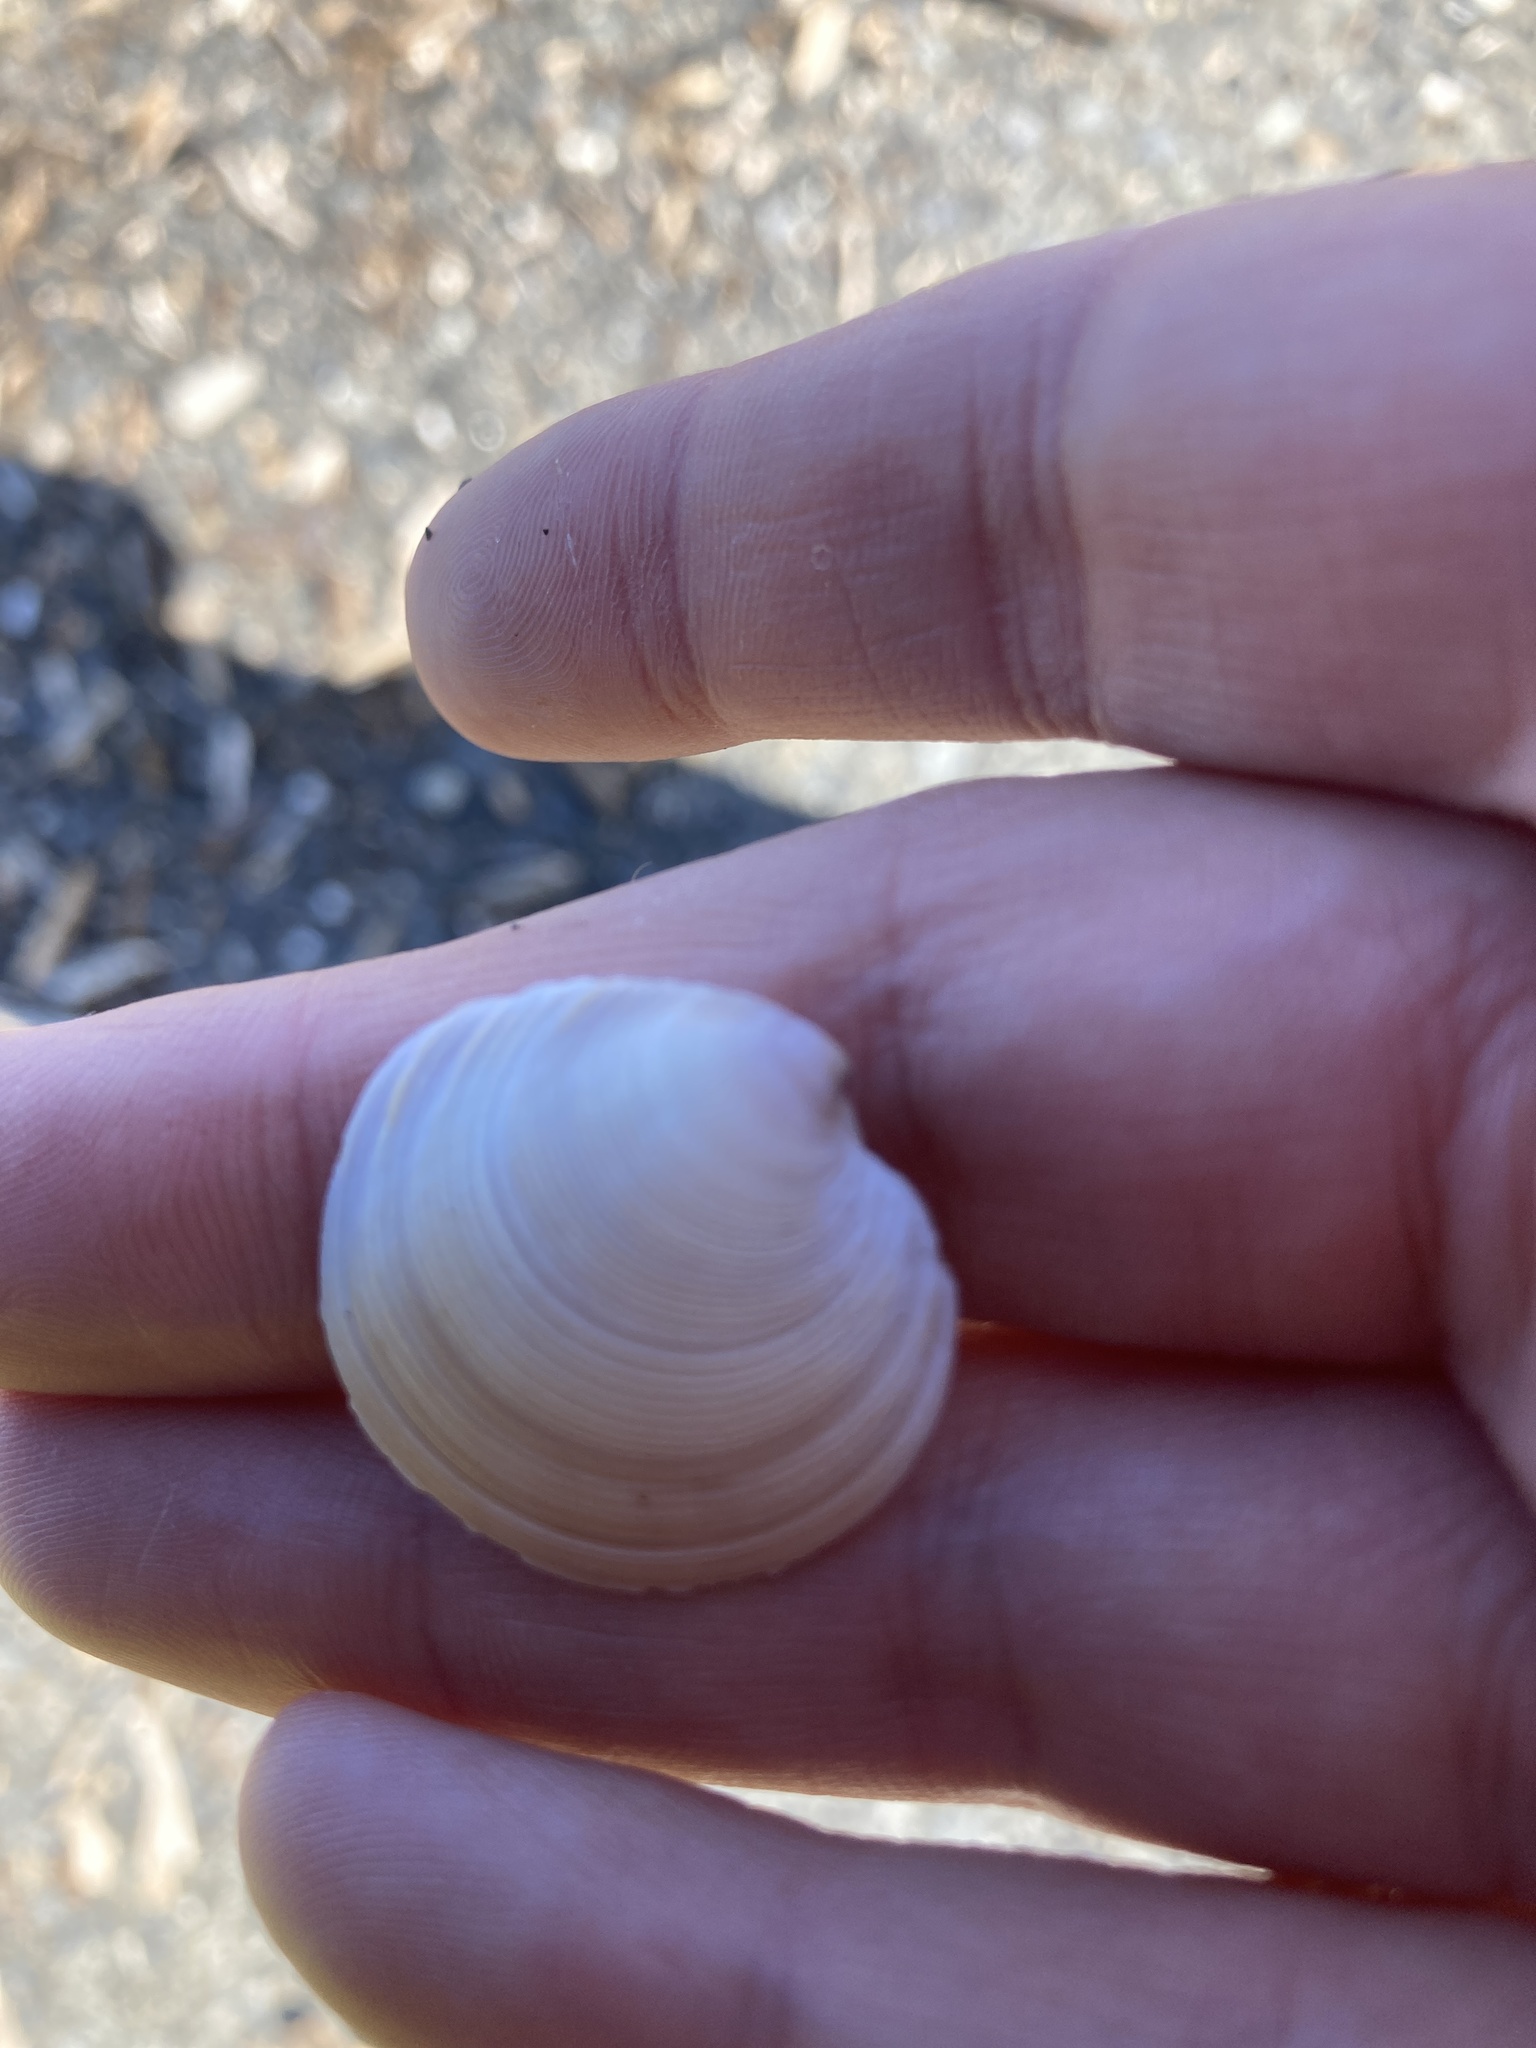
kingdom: Animalia
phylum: Mollusca
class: Bivalvia
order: Venerida
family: Veneridae
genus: Dosinia
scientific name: Dosinia anus
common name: Old-woman dosinia
